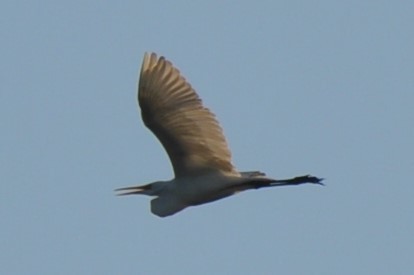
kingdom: Animalia
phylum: Chordata
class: Aves
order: Pelecaniformes
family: Ardeidae
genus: Ardea
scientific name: Ardea alba
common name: Great egret
